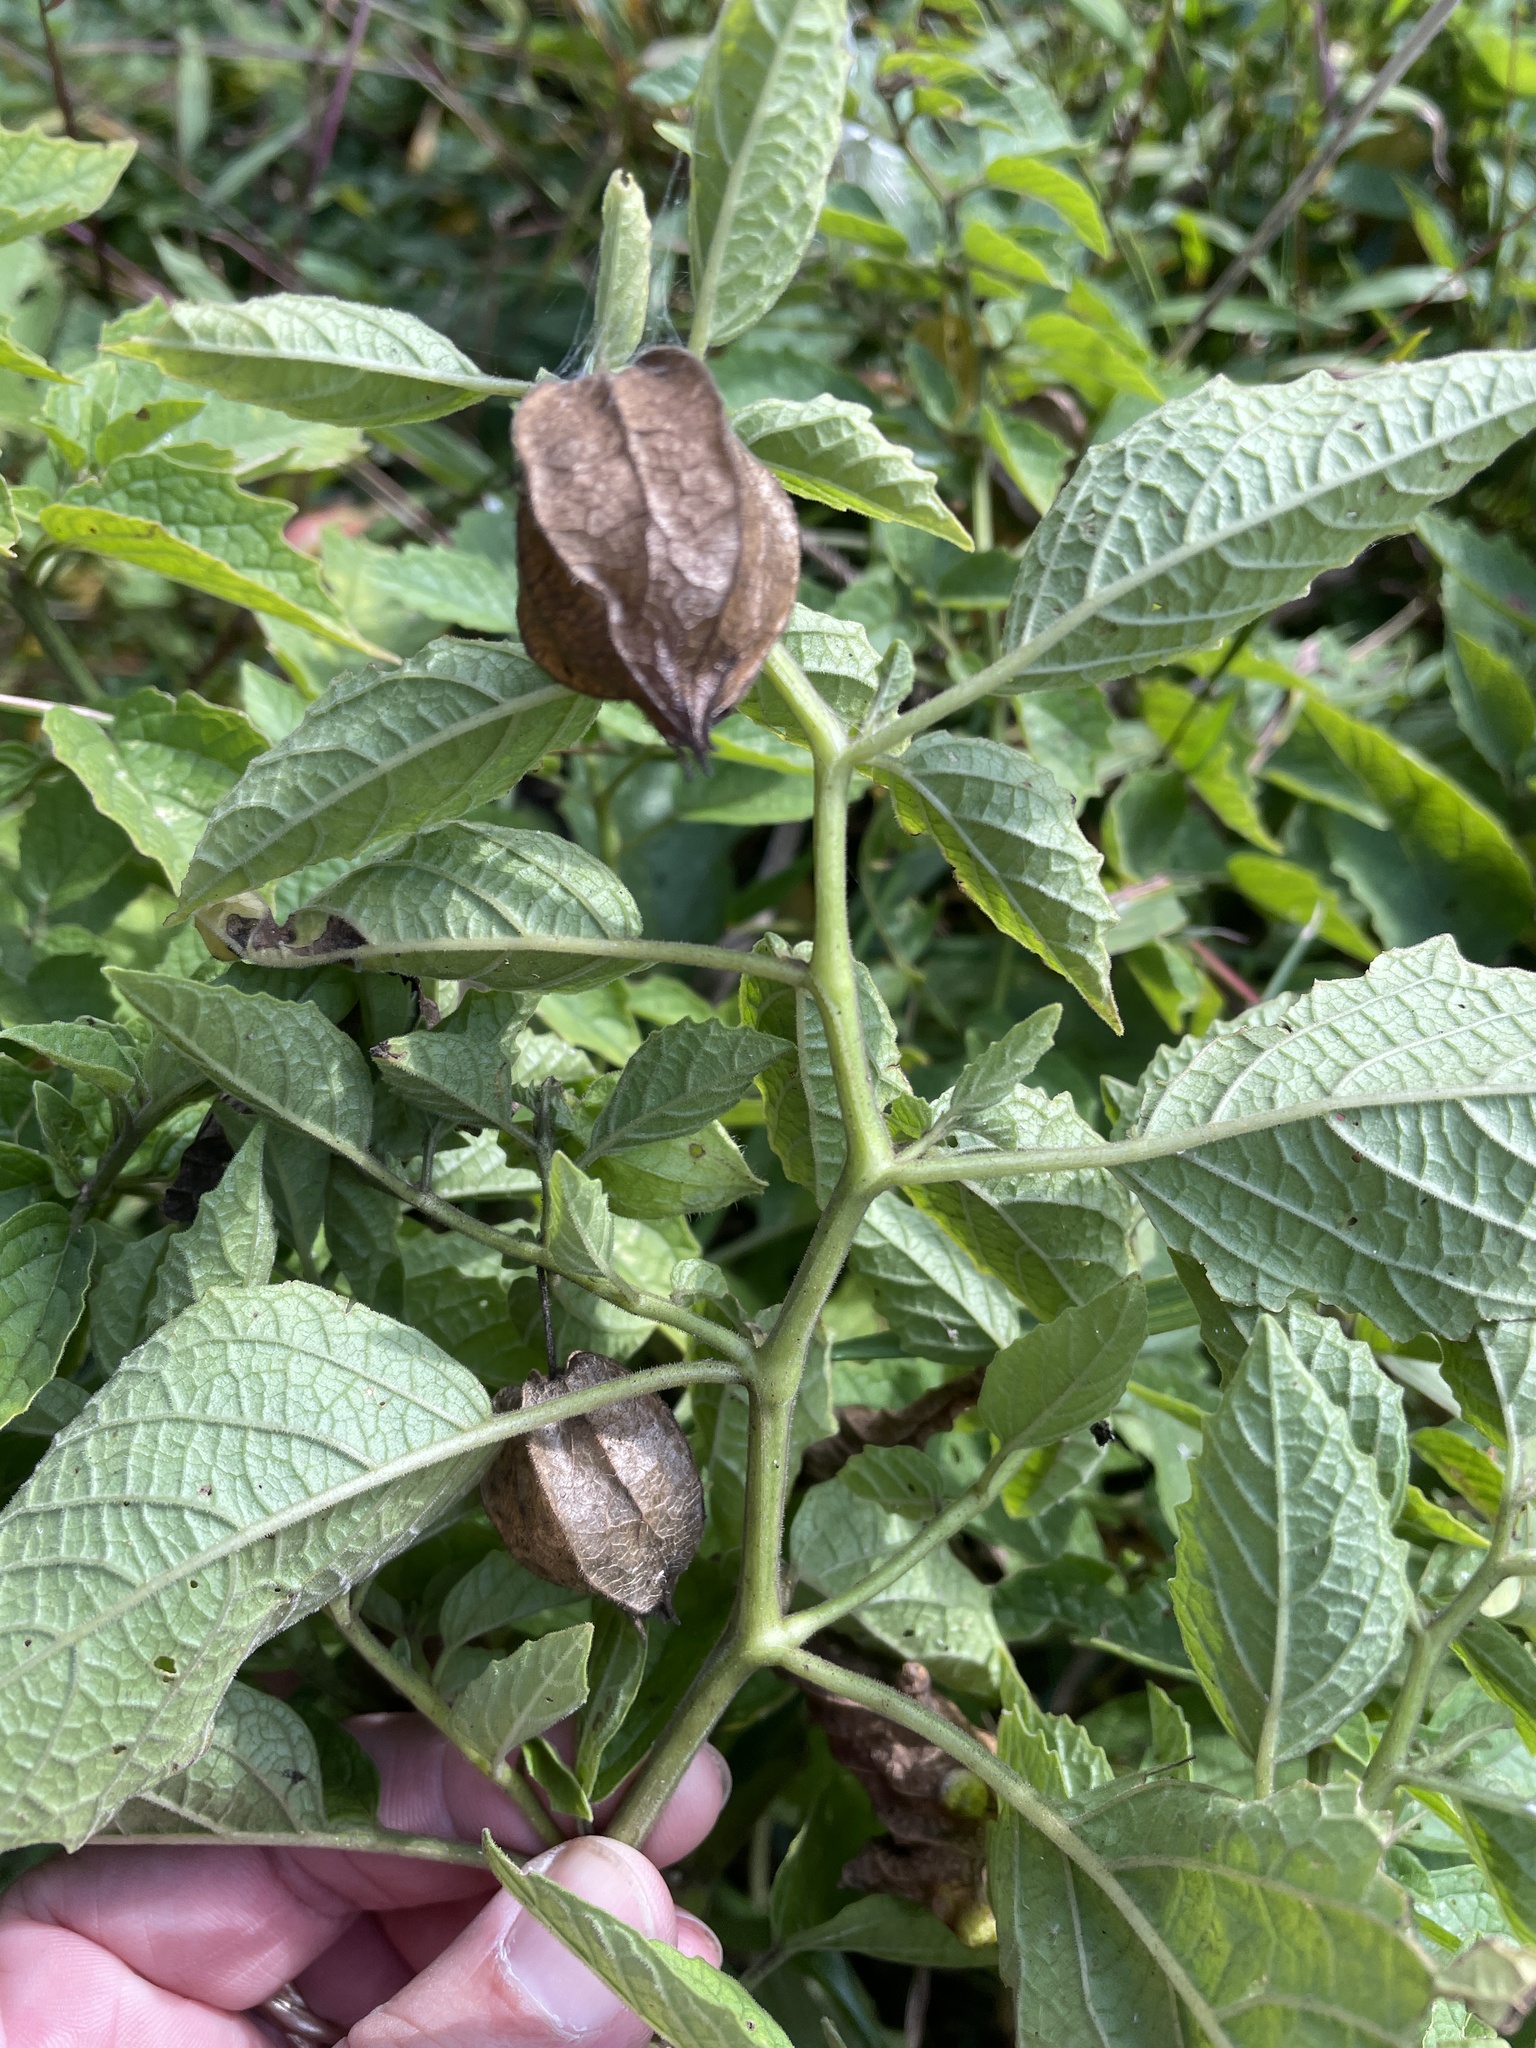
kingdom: Plantae
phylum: Tracheophyta
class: Magnoliopsida
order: Solanales
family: Solanaceae
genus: Physalis
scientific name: Physalis heterophylla
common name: Clammy ground-cherry
